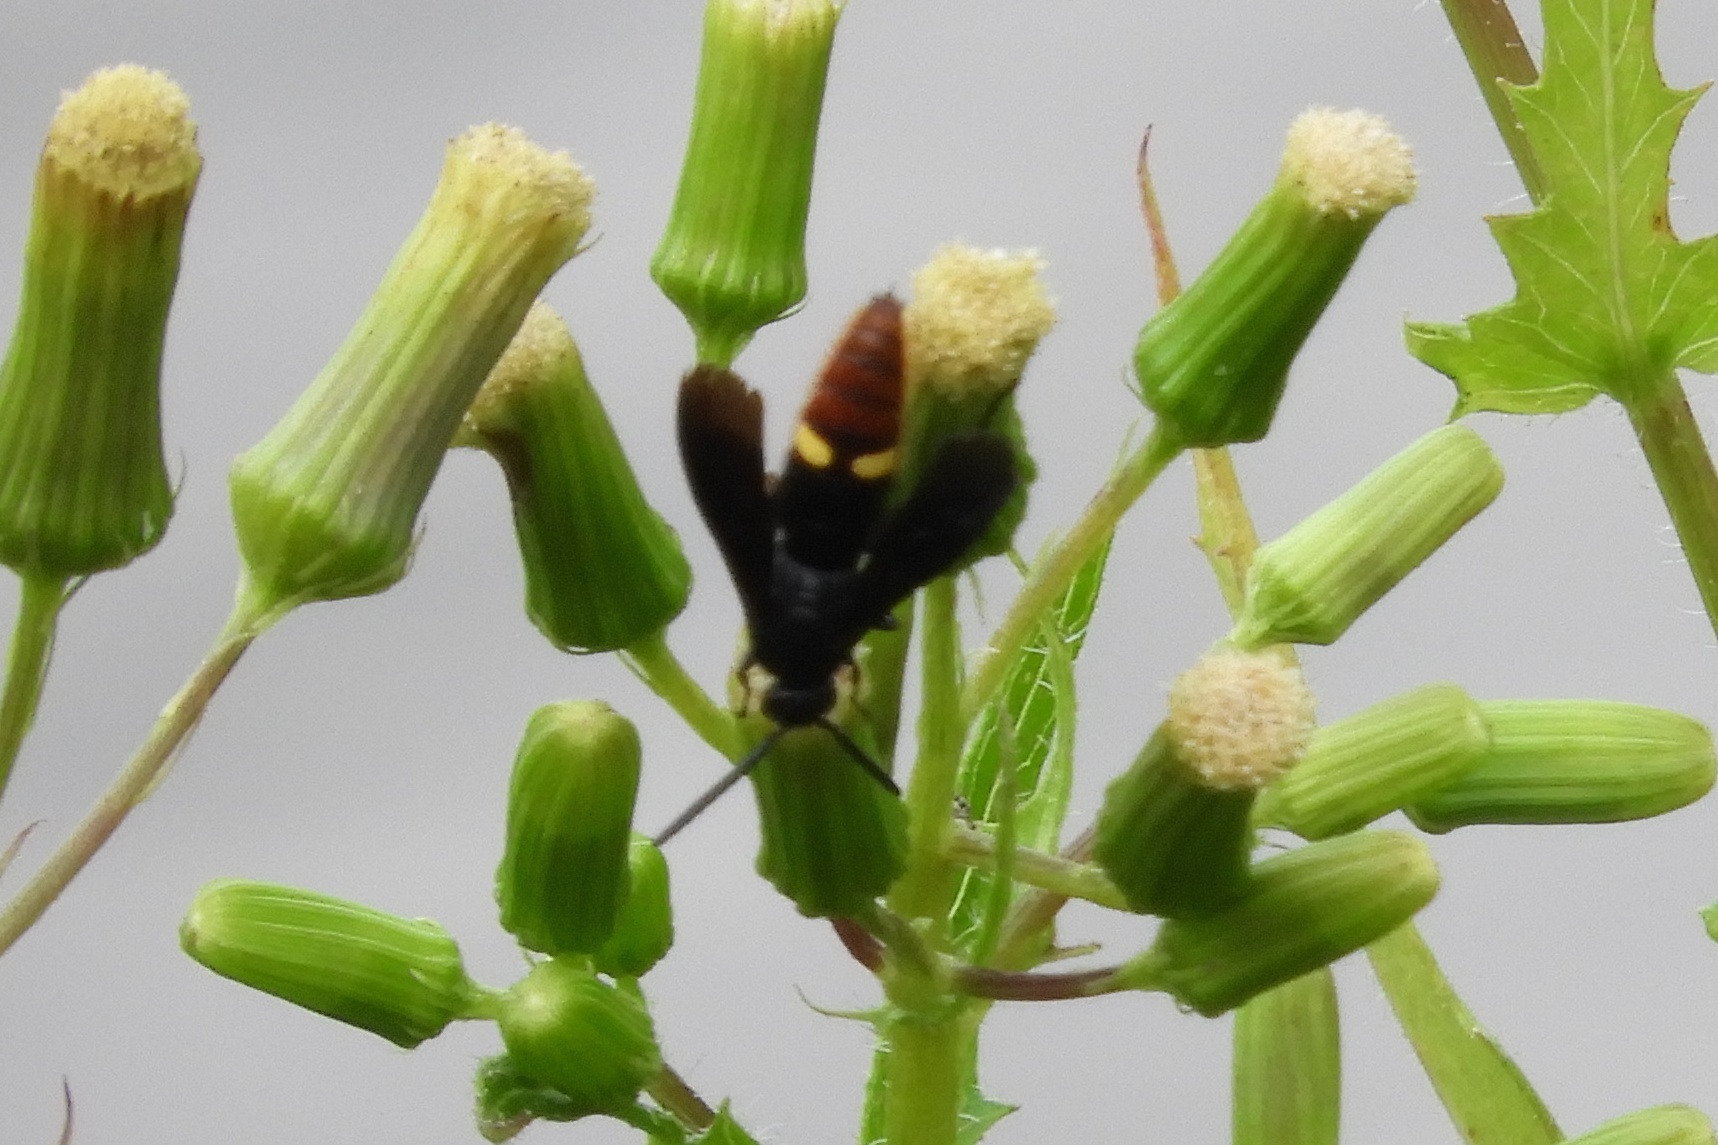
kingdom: Animalia
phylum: Arthropoda
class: Insecta
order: Hymenoptera
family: Scoliidae
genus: Scolia
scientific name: Scolia dubia
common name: Blue-winged scoliid wasp
